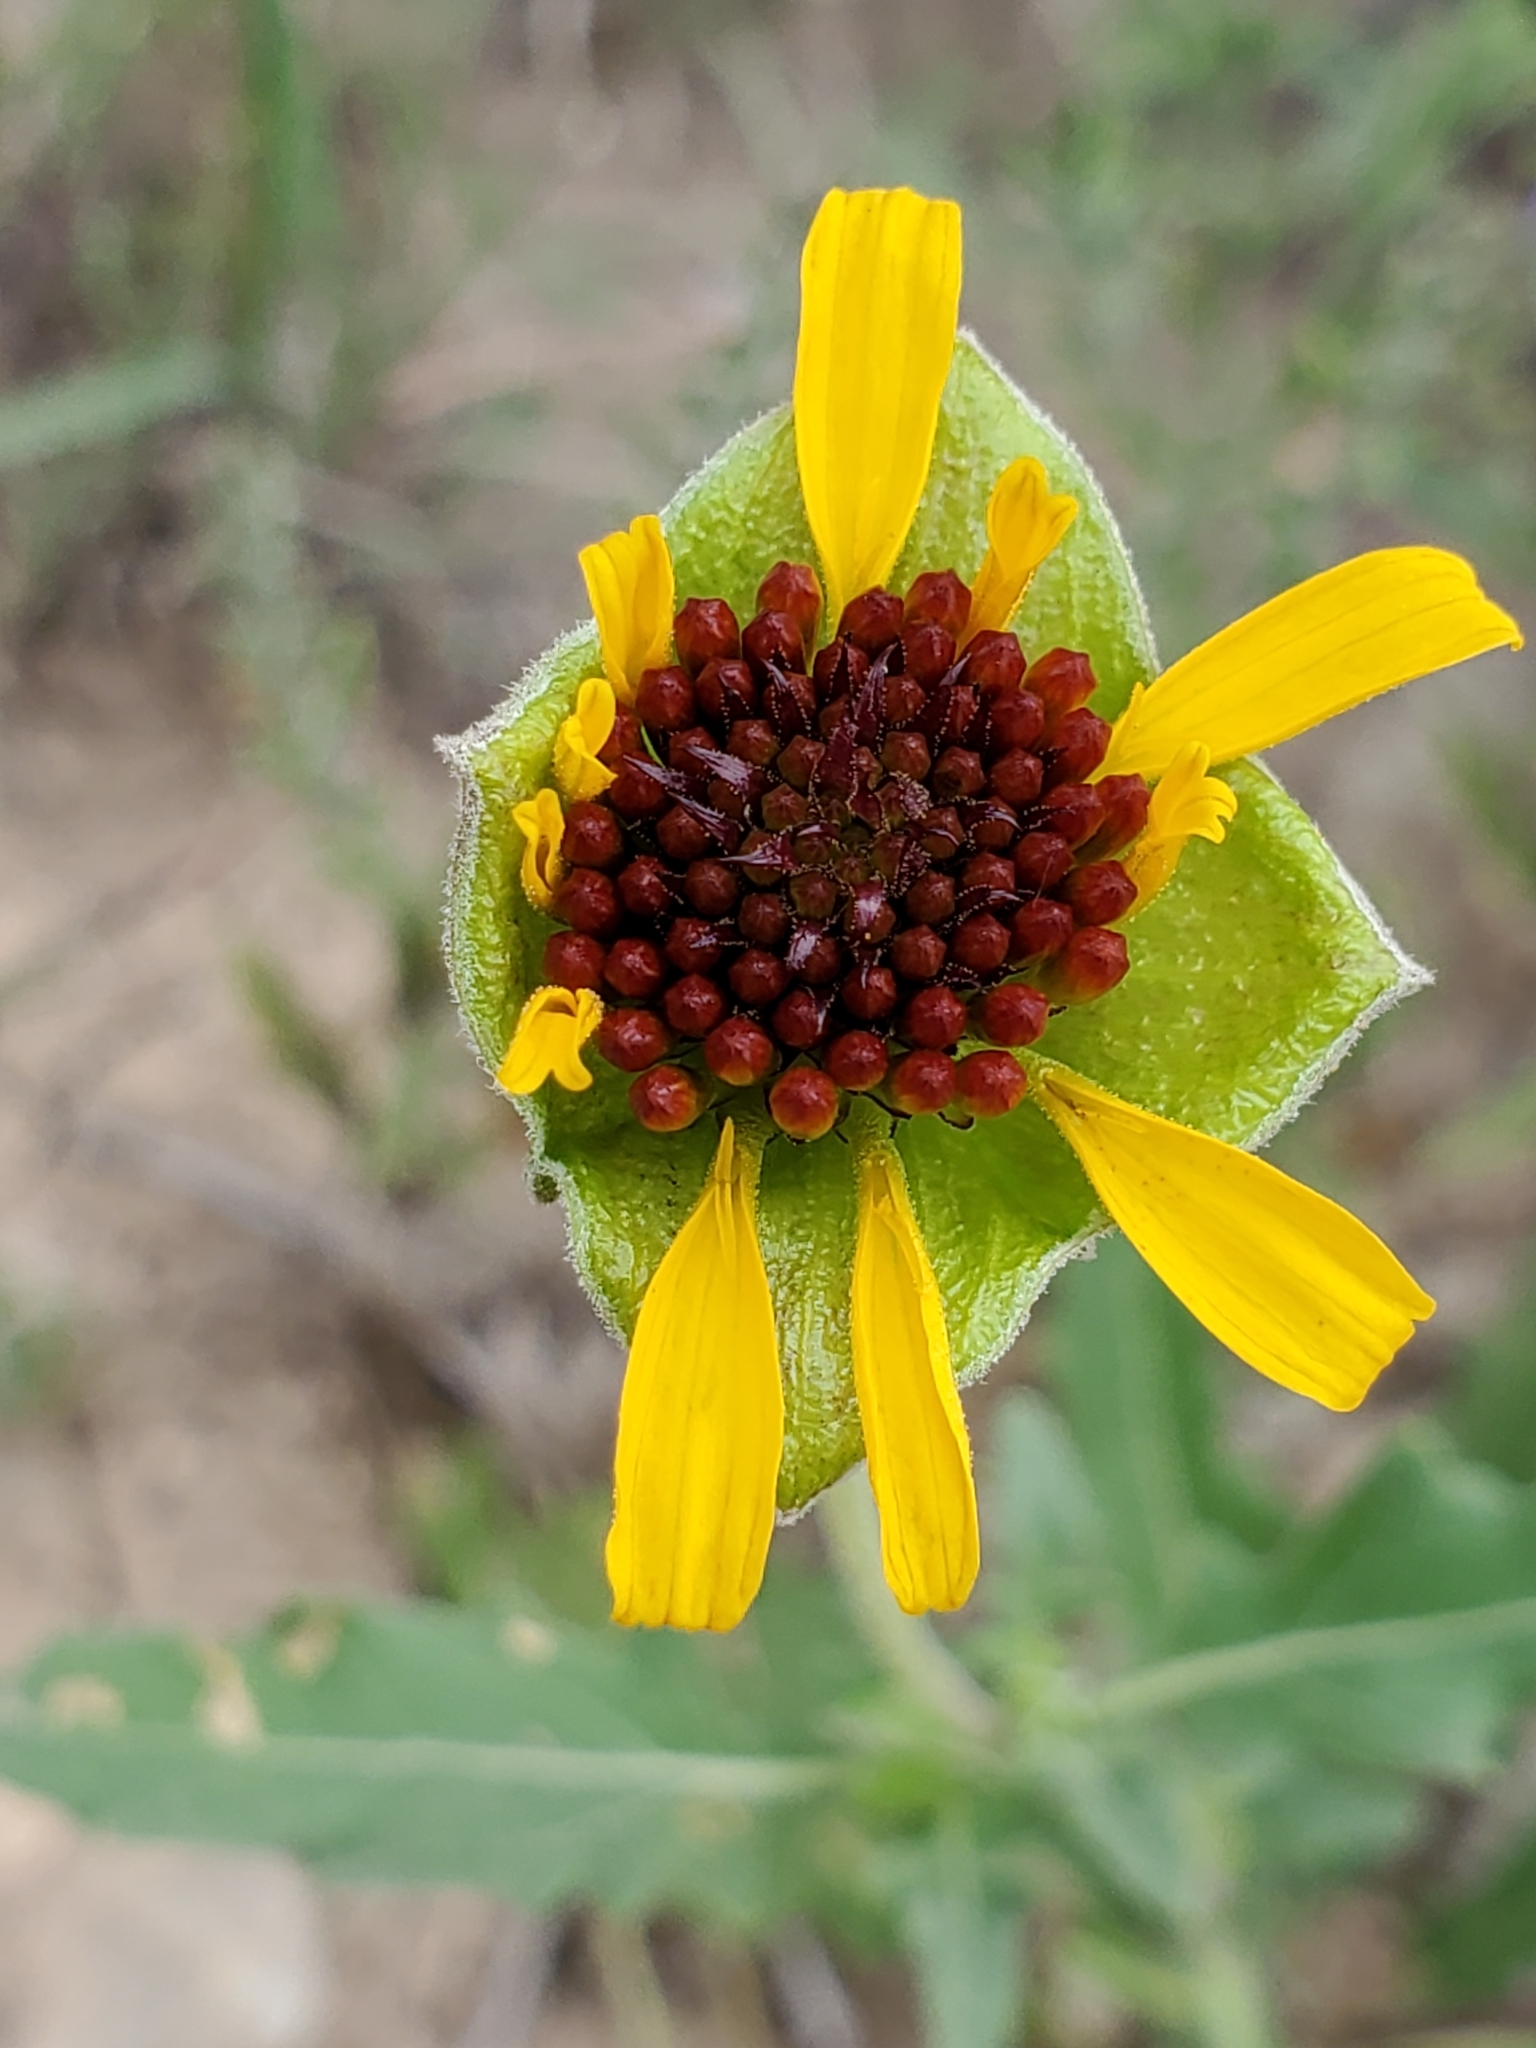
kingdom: Plantae
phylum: Tracheophyta
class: Magnoliopsida
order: Asterales
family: Asteraceae
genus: Tetragonotheca
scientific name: Tetragonotheca texana
